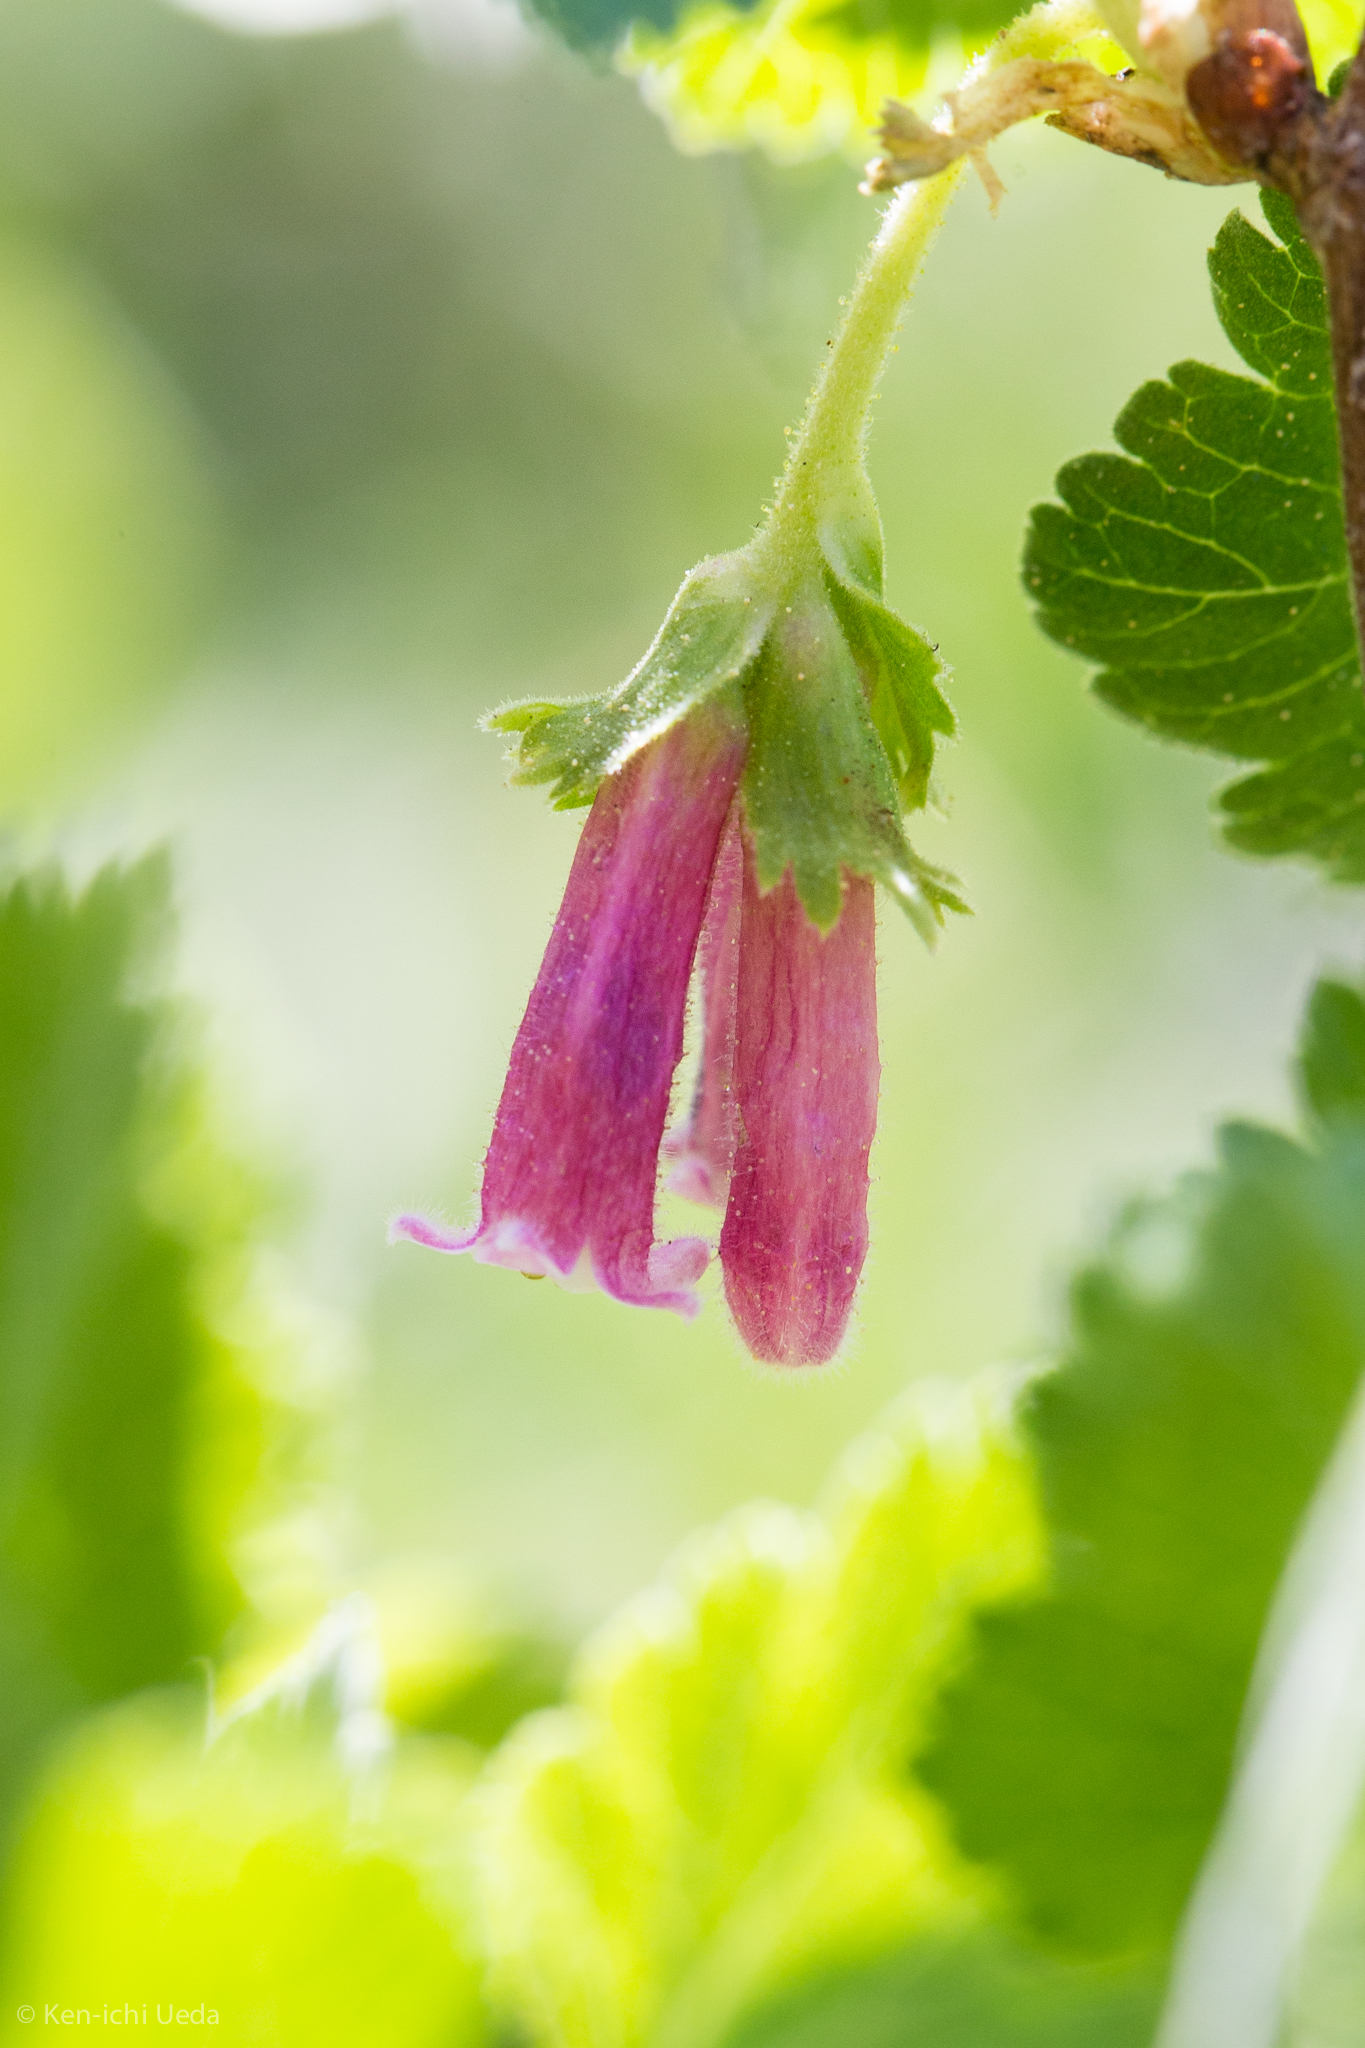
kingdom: Plantae
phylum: Tracheophyta
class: Magnoliopsida
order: Saxifragales
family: Grossulariaceae
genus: Ribes
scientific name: Ribes cereum
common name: Wax currant
